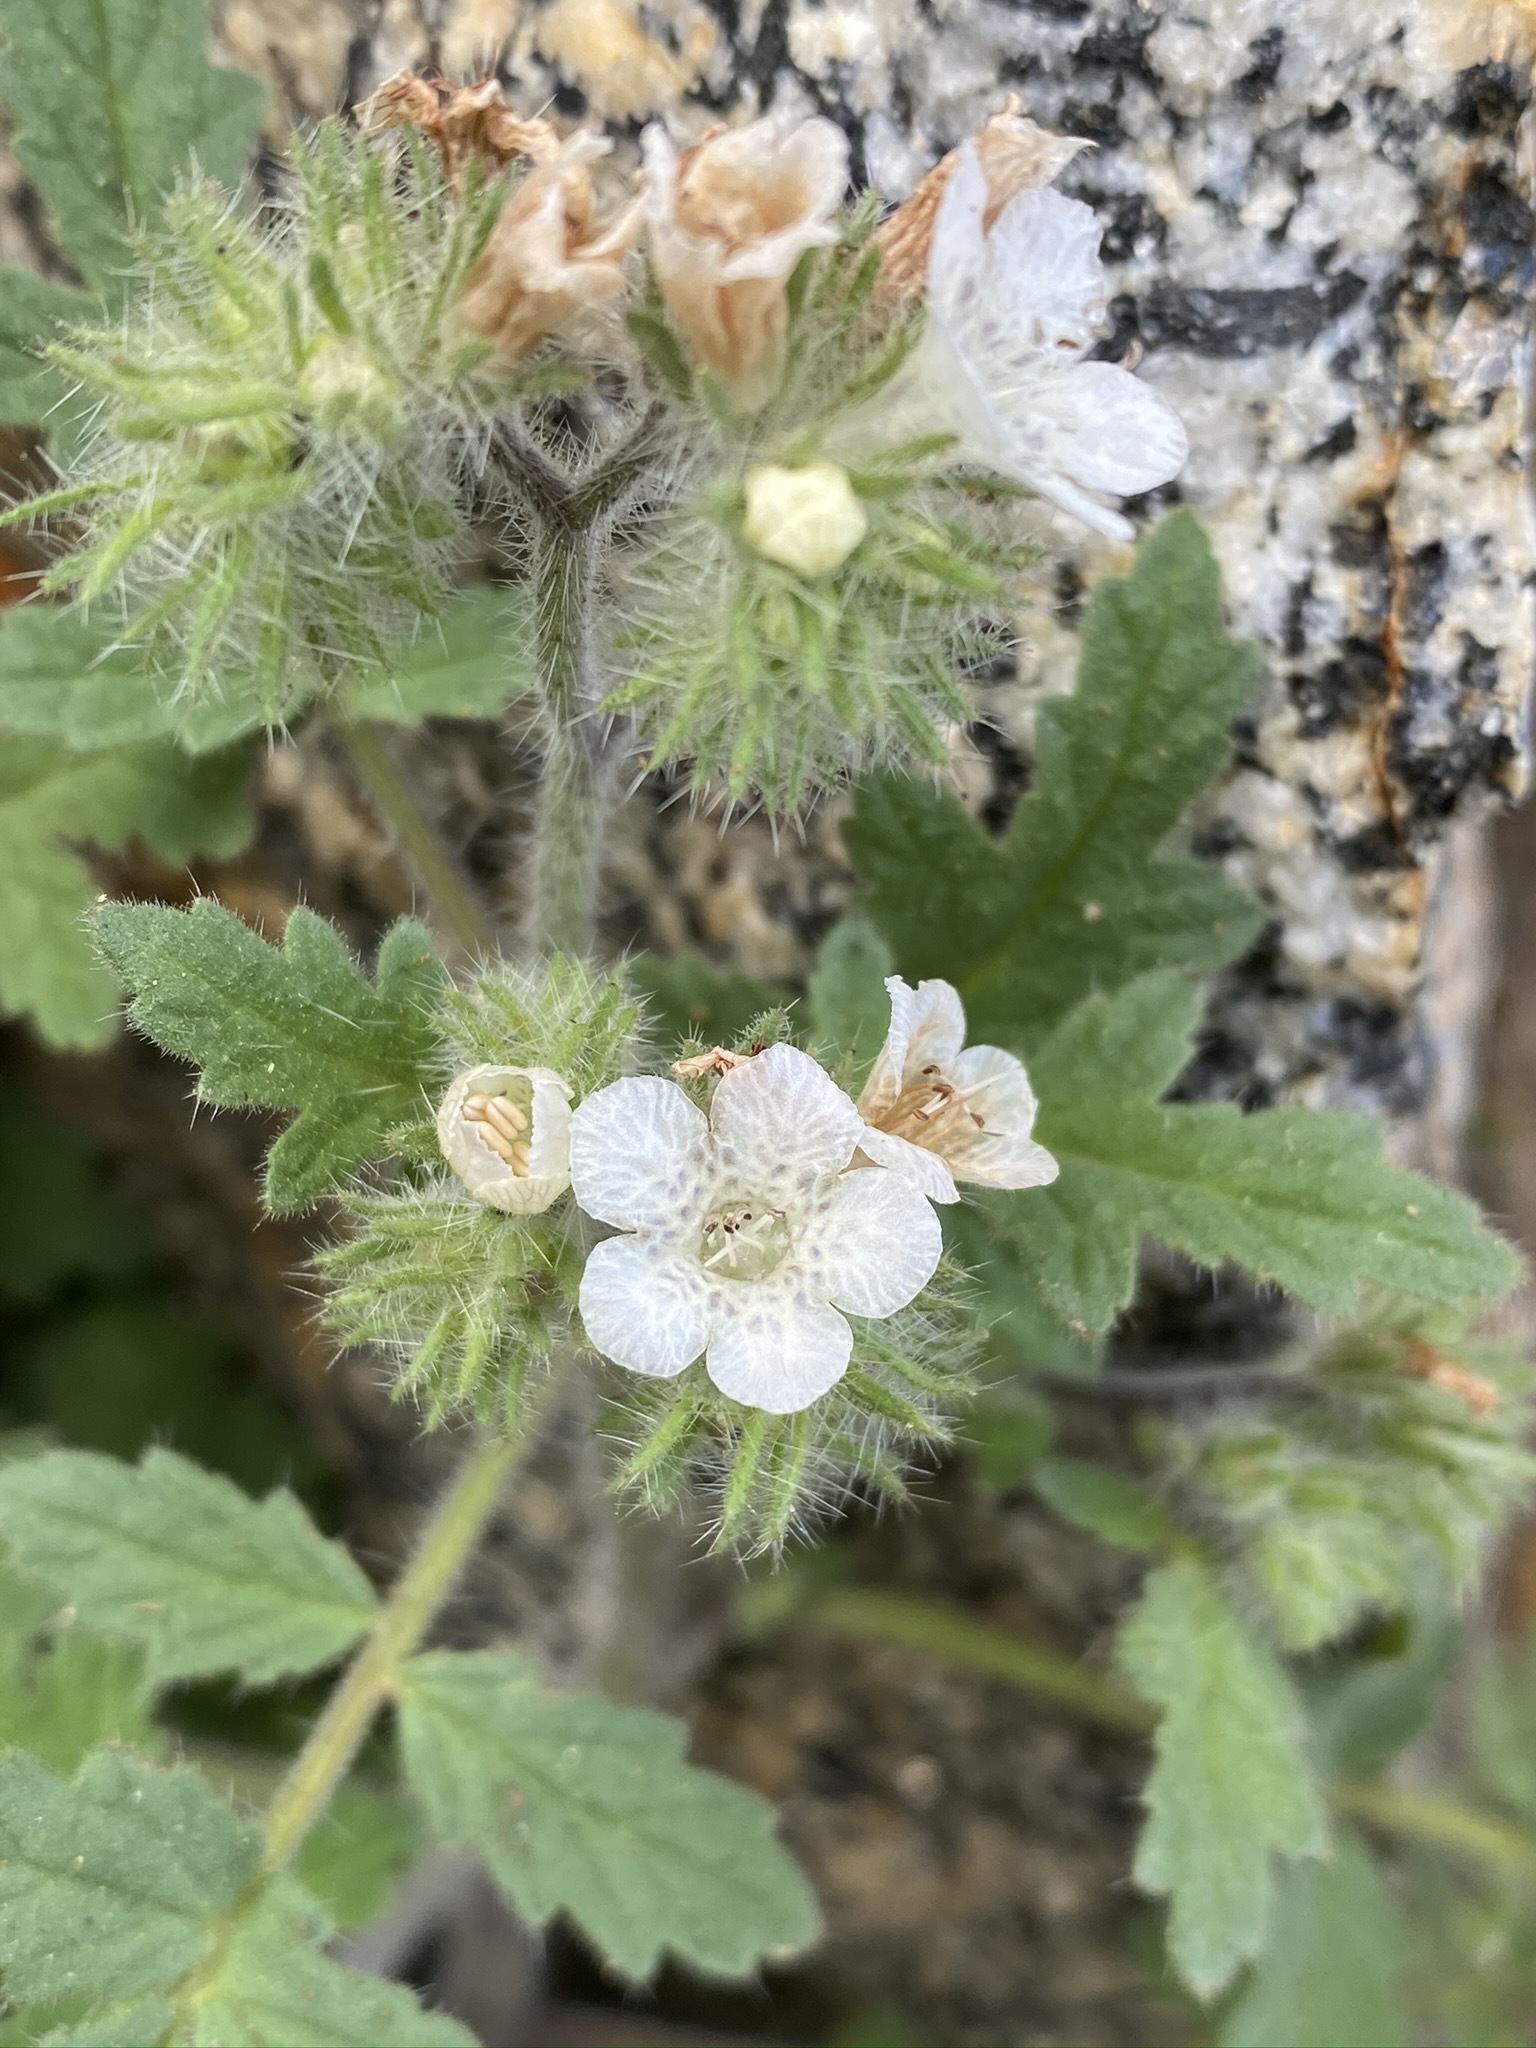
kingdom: Plantae
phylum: Tracheophyta
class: Magnoliopsida
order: Boraginales
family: Hydrophyllaceae
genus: Phacelia
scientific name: Phacelia cicutaria
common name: Caterpillar phacelia
